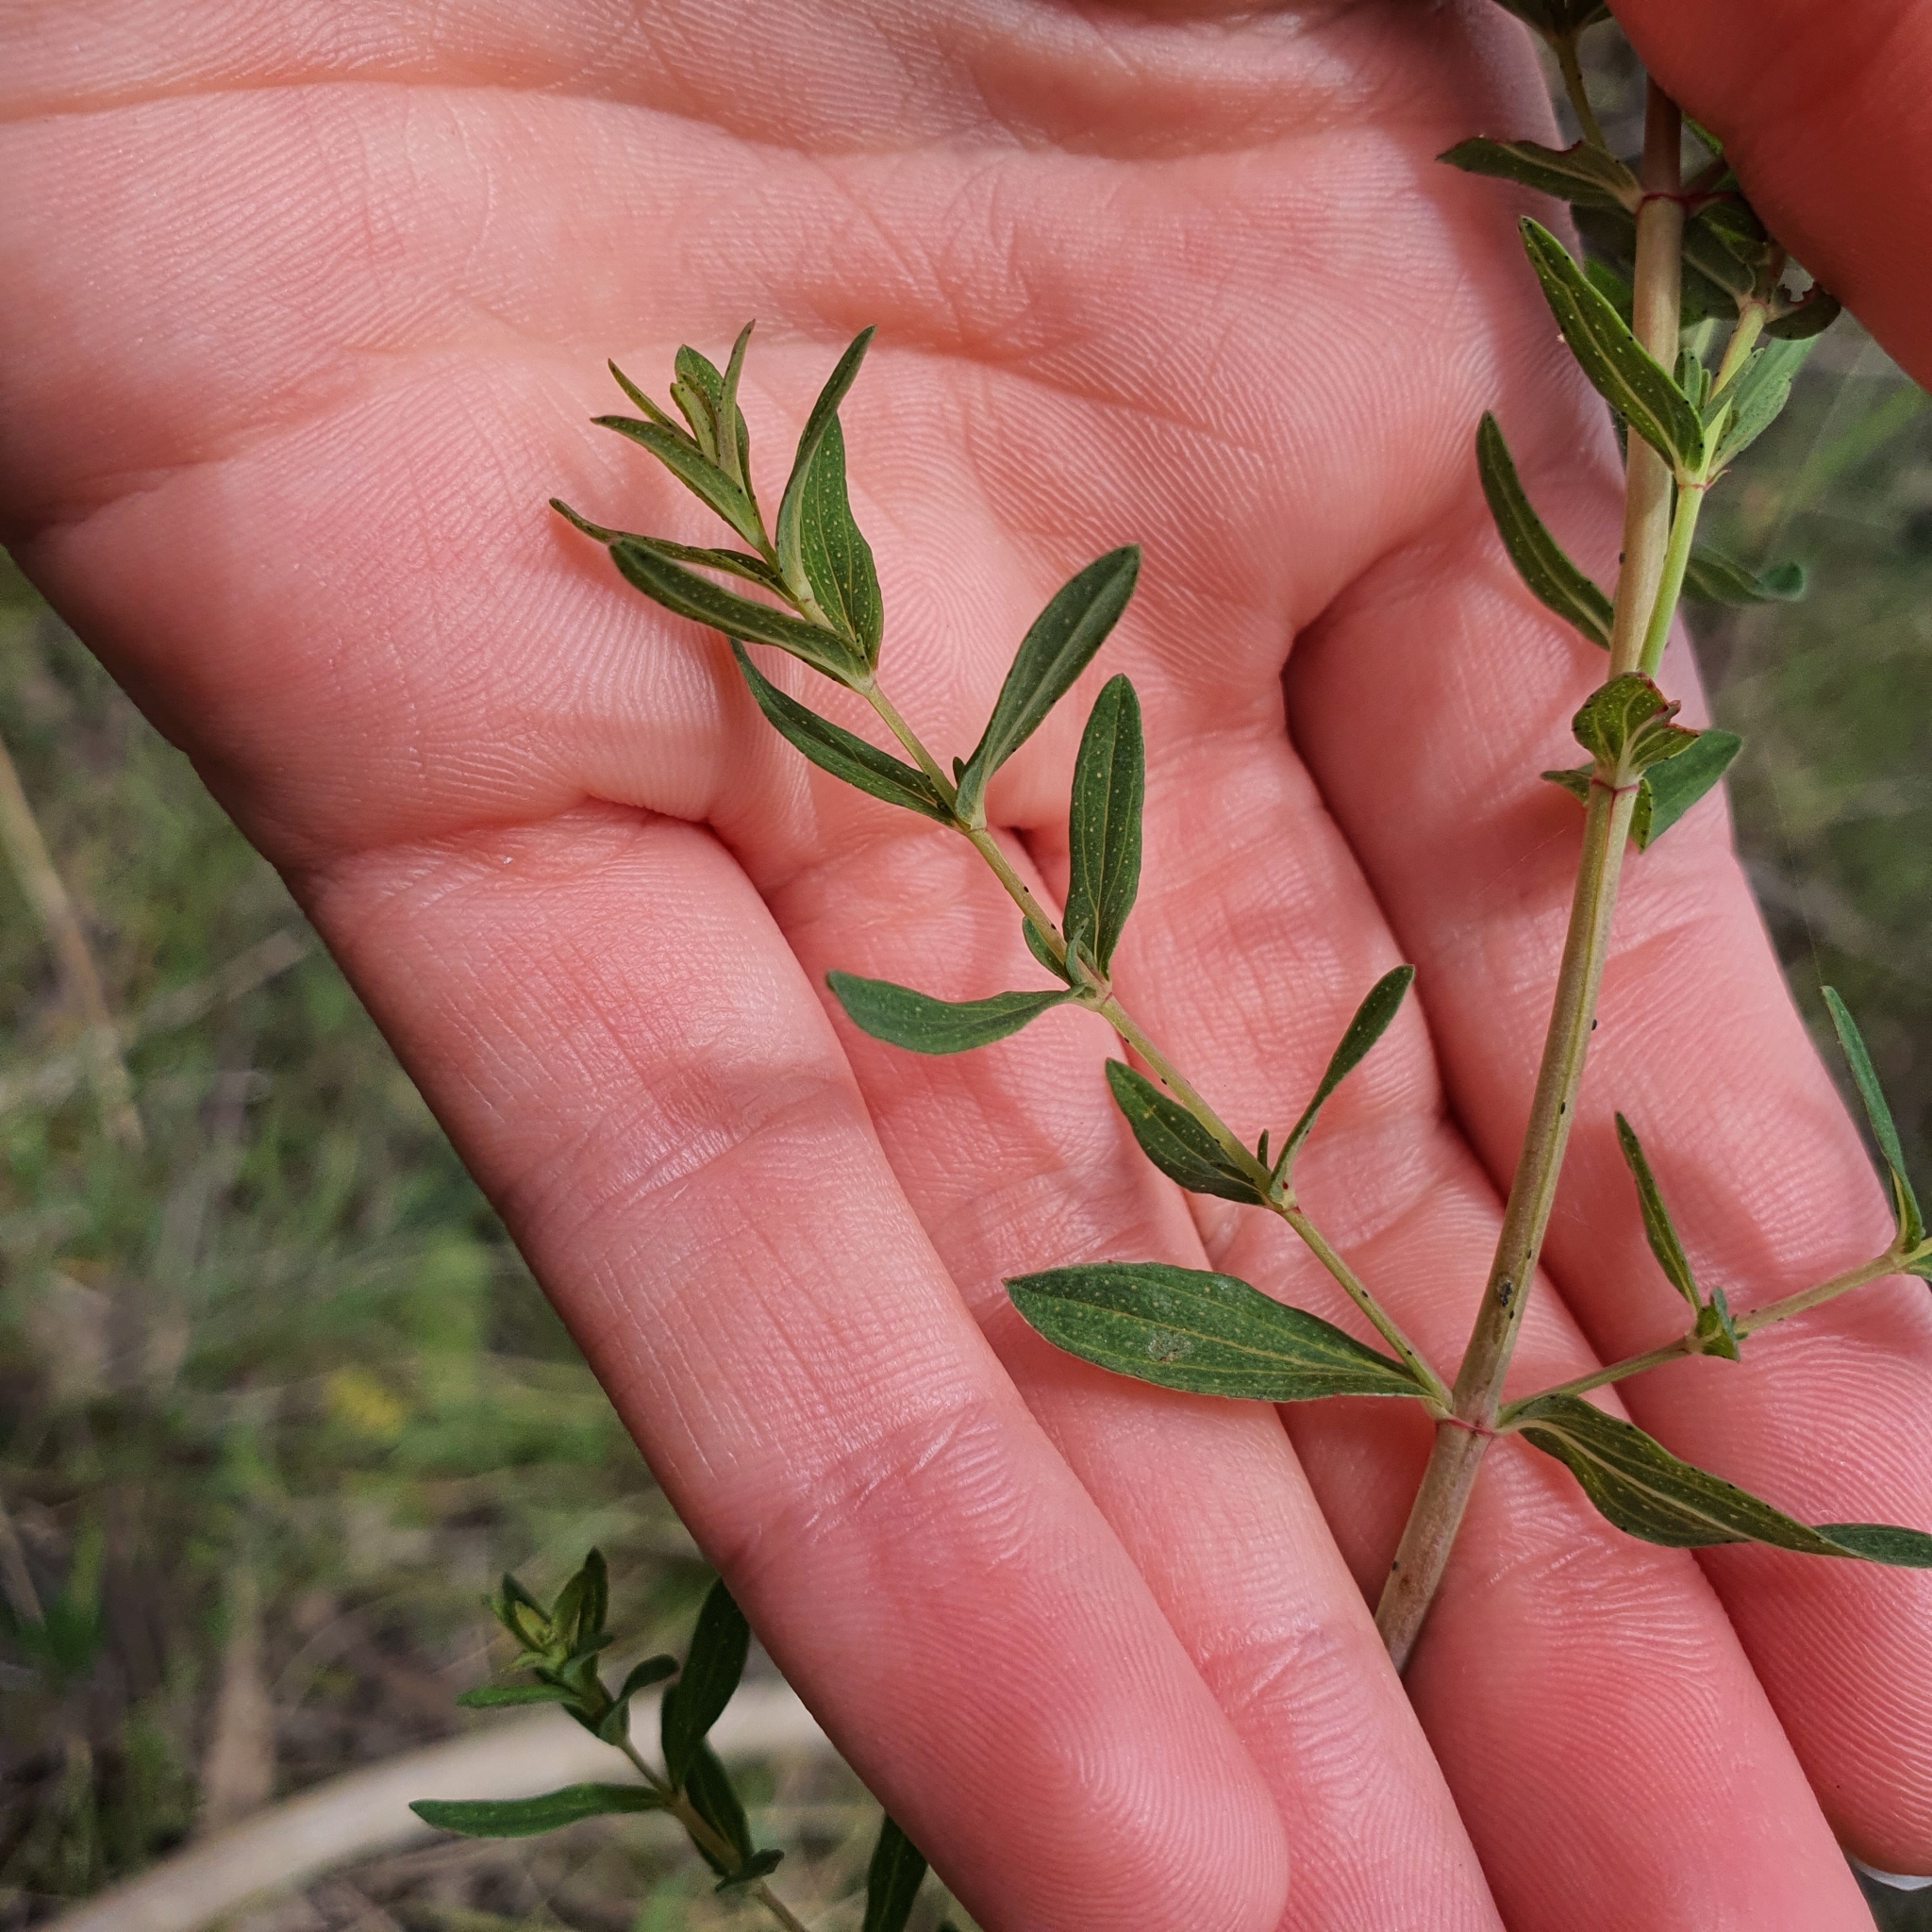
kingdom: Plantae
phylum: Tracheophyta
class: Magnoliopsida
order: Malpighiales
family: Hypericaceae
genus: Hypericum
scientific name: Hypericum perforatum
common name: Common st. johnswort
